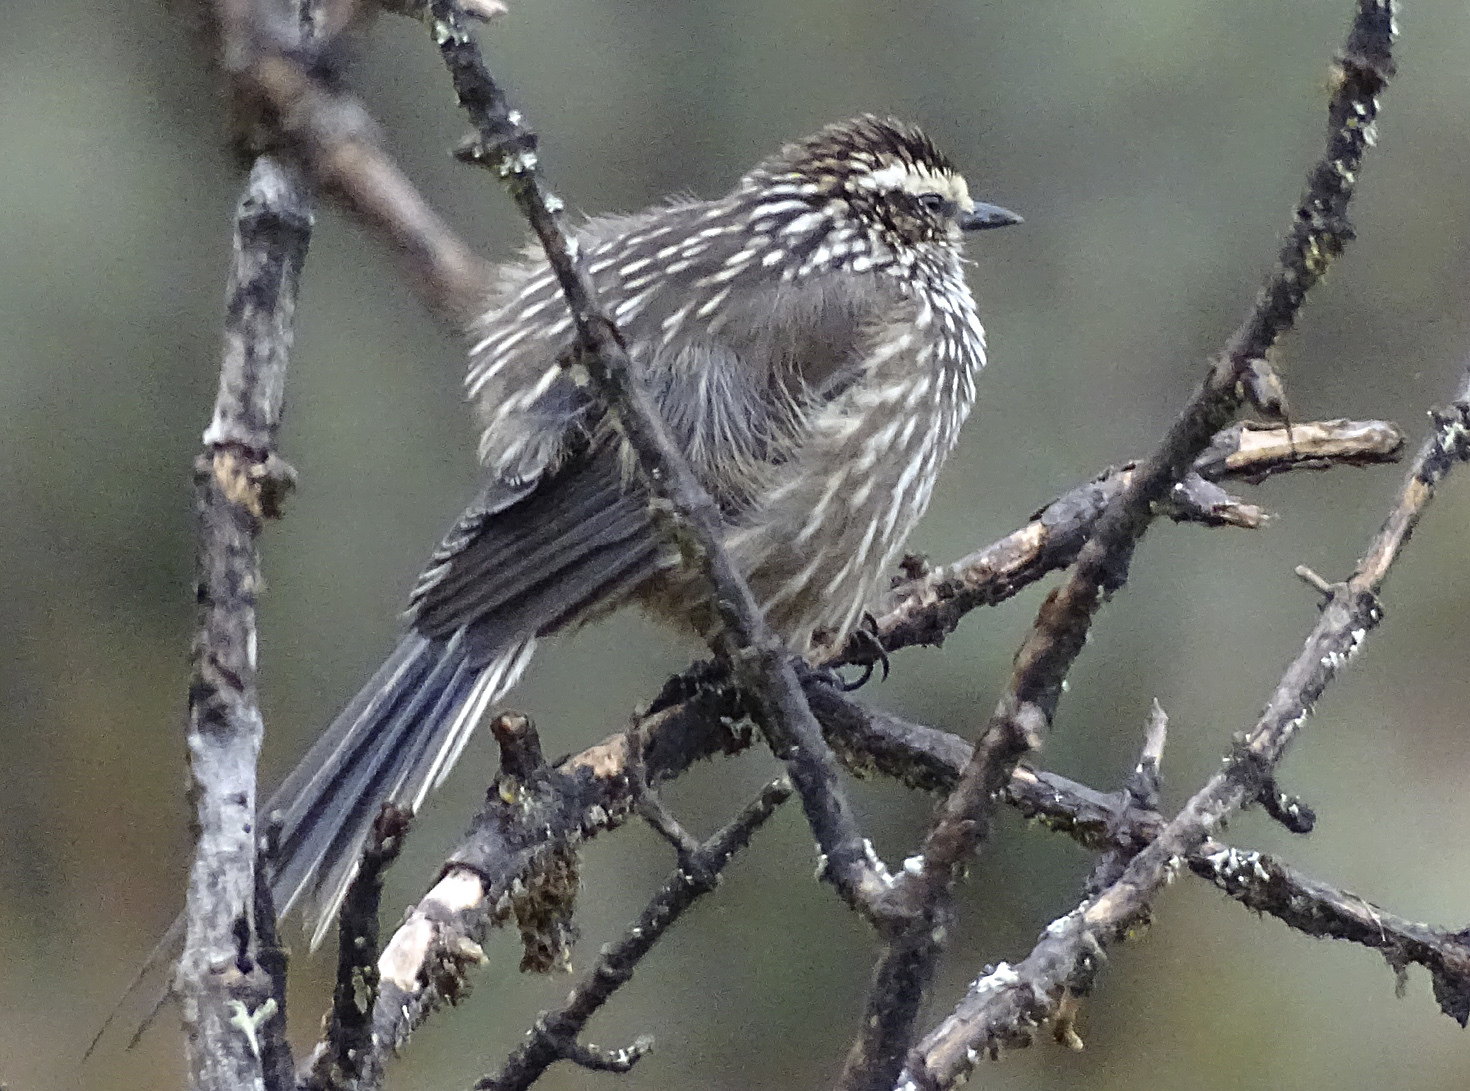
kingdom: Animalia
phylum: Chordata
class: Aves
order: Passeriformes
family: Furnariidae
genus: Leptasthenura
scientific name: Leptasthenura andicola
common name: Andean tit-spinetail
